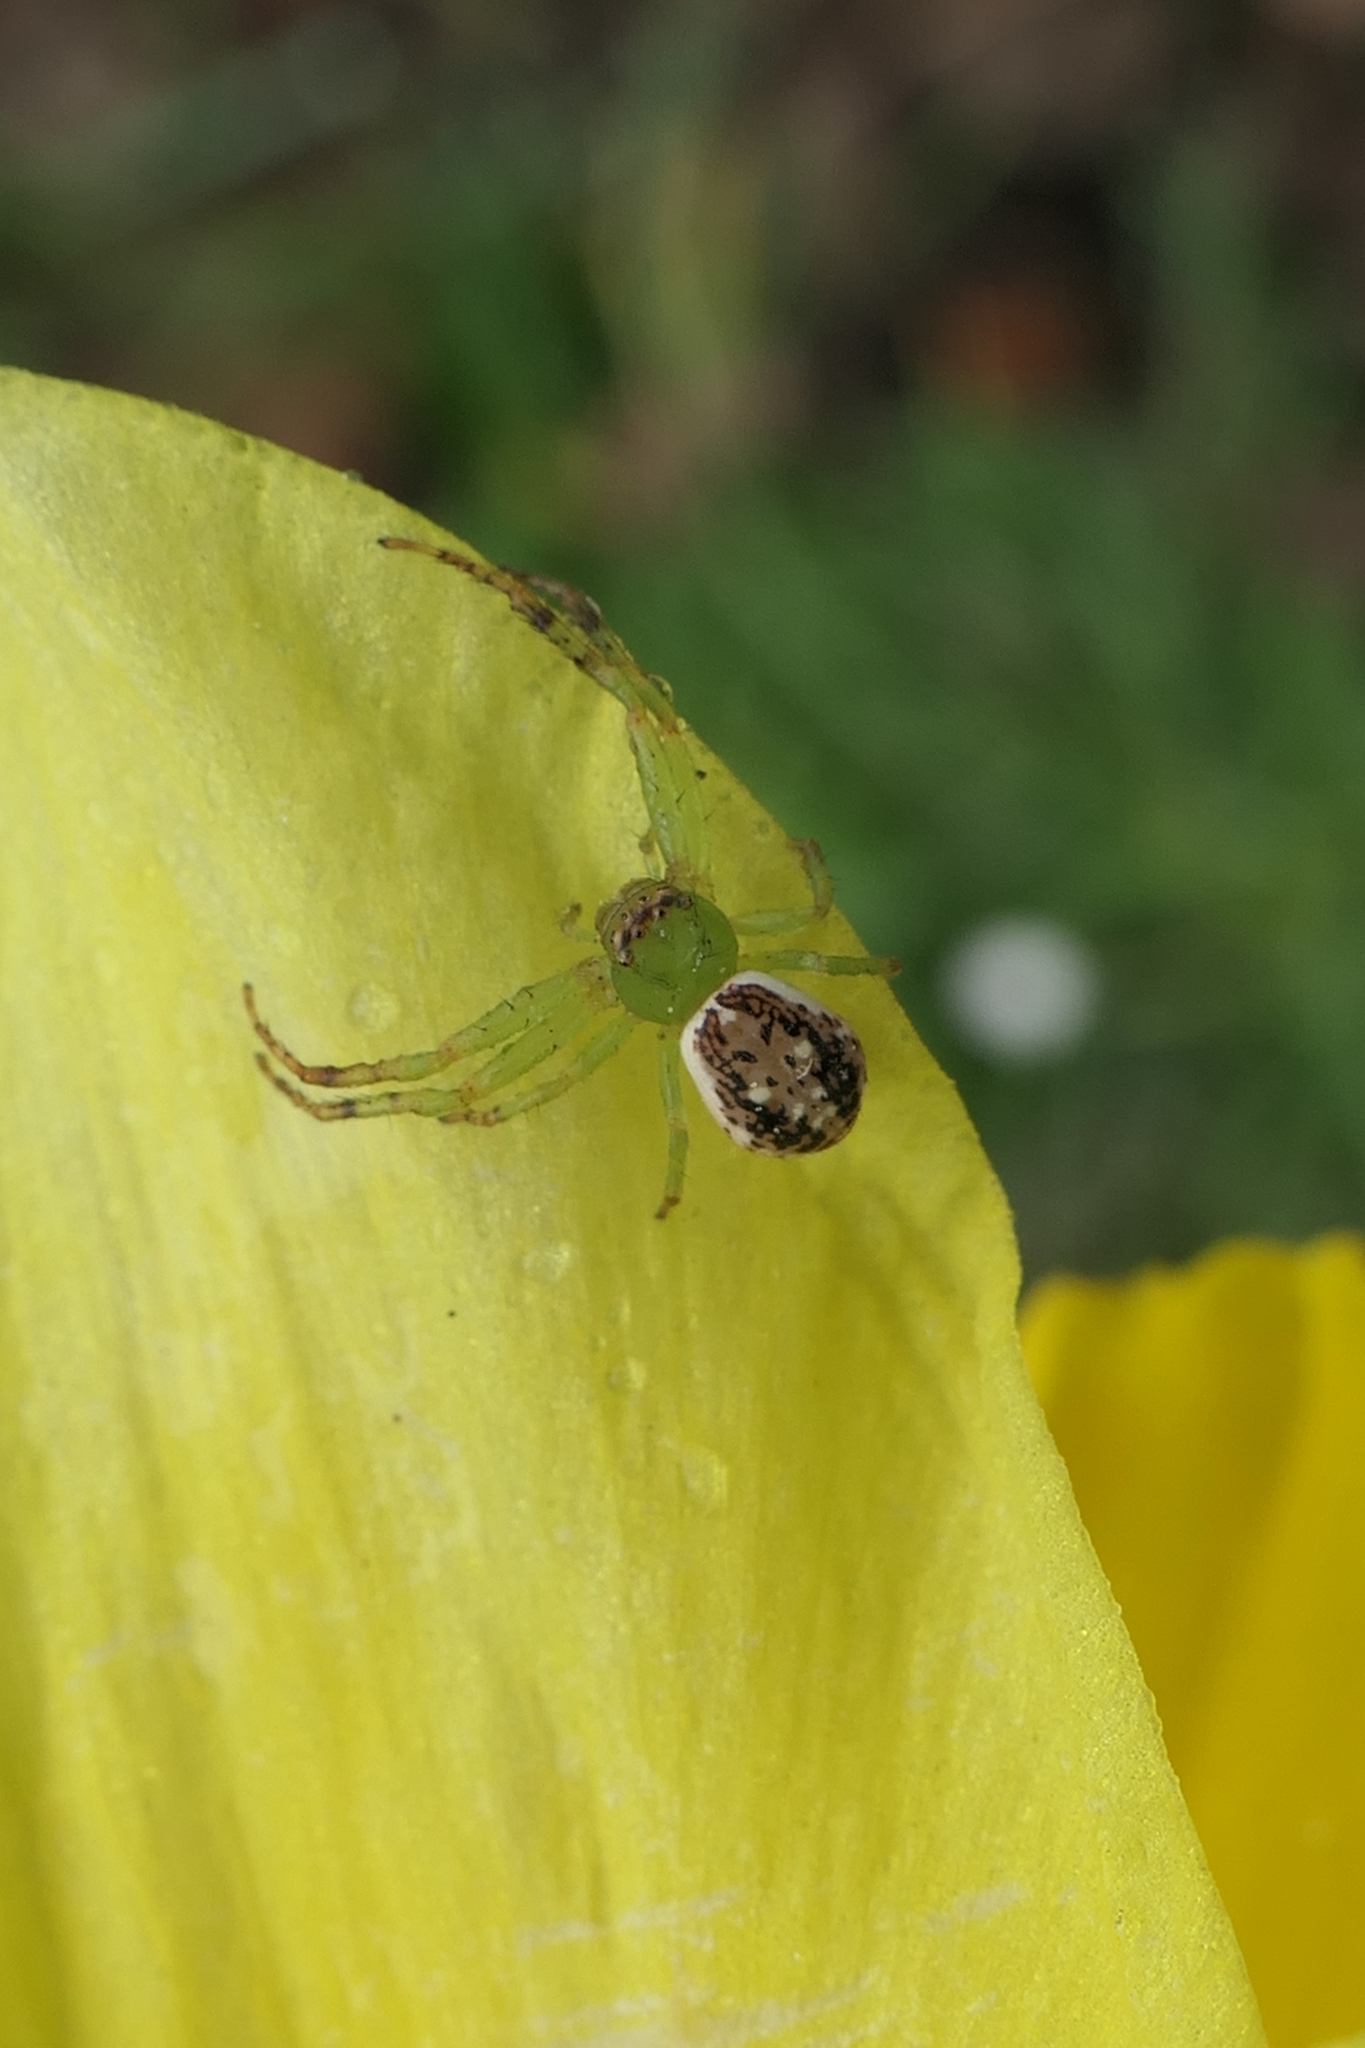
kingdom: Animalia
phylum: Arthropoda
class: Arachnida
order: Araneae
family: Thomisidae
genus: Diaea
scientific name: Diaea ambara
